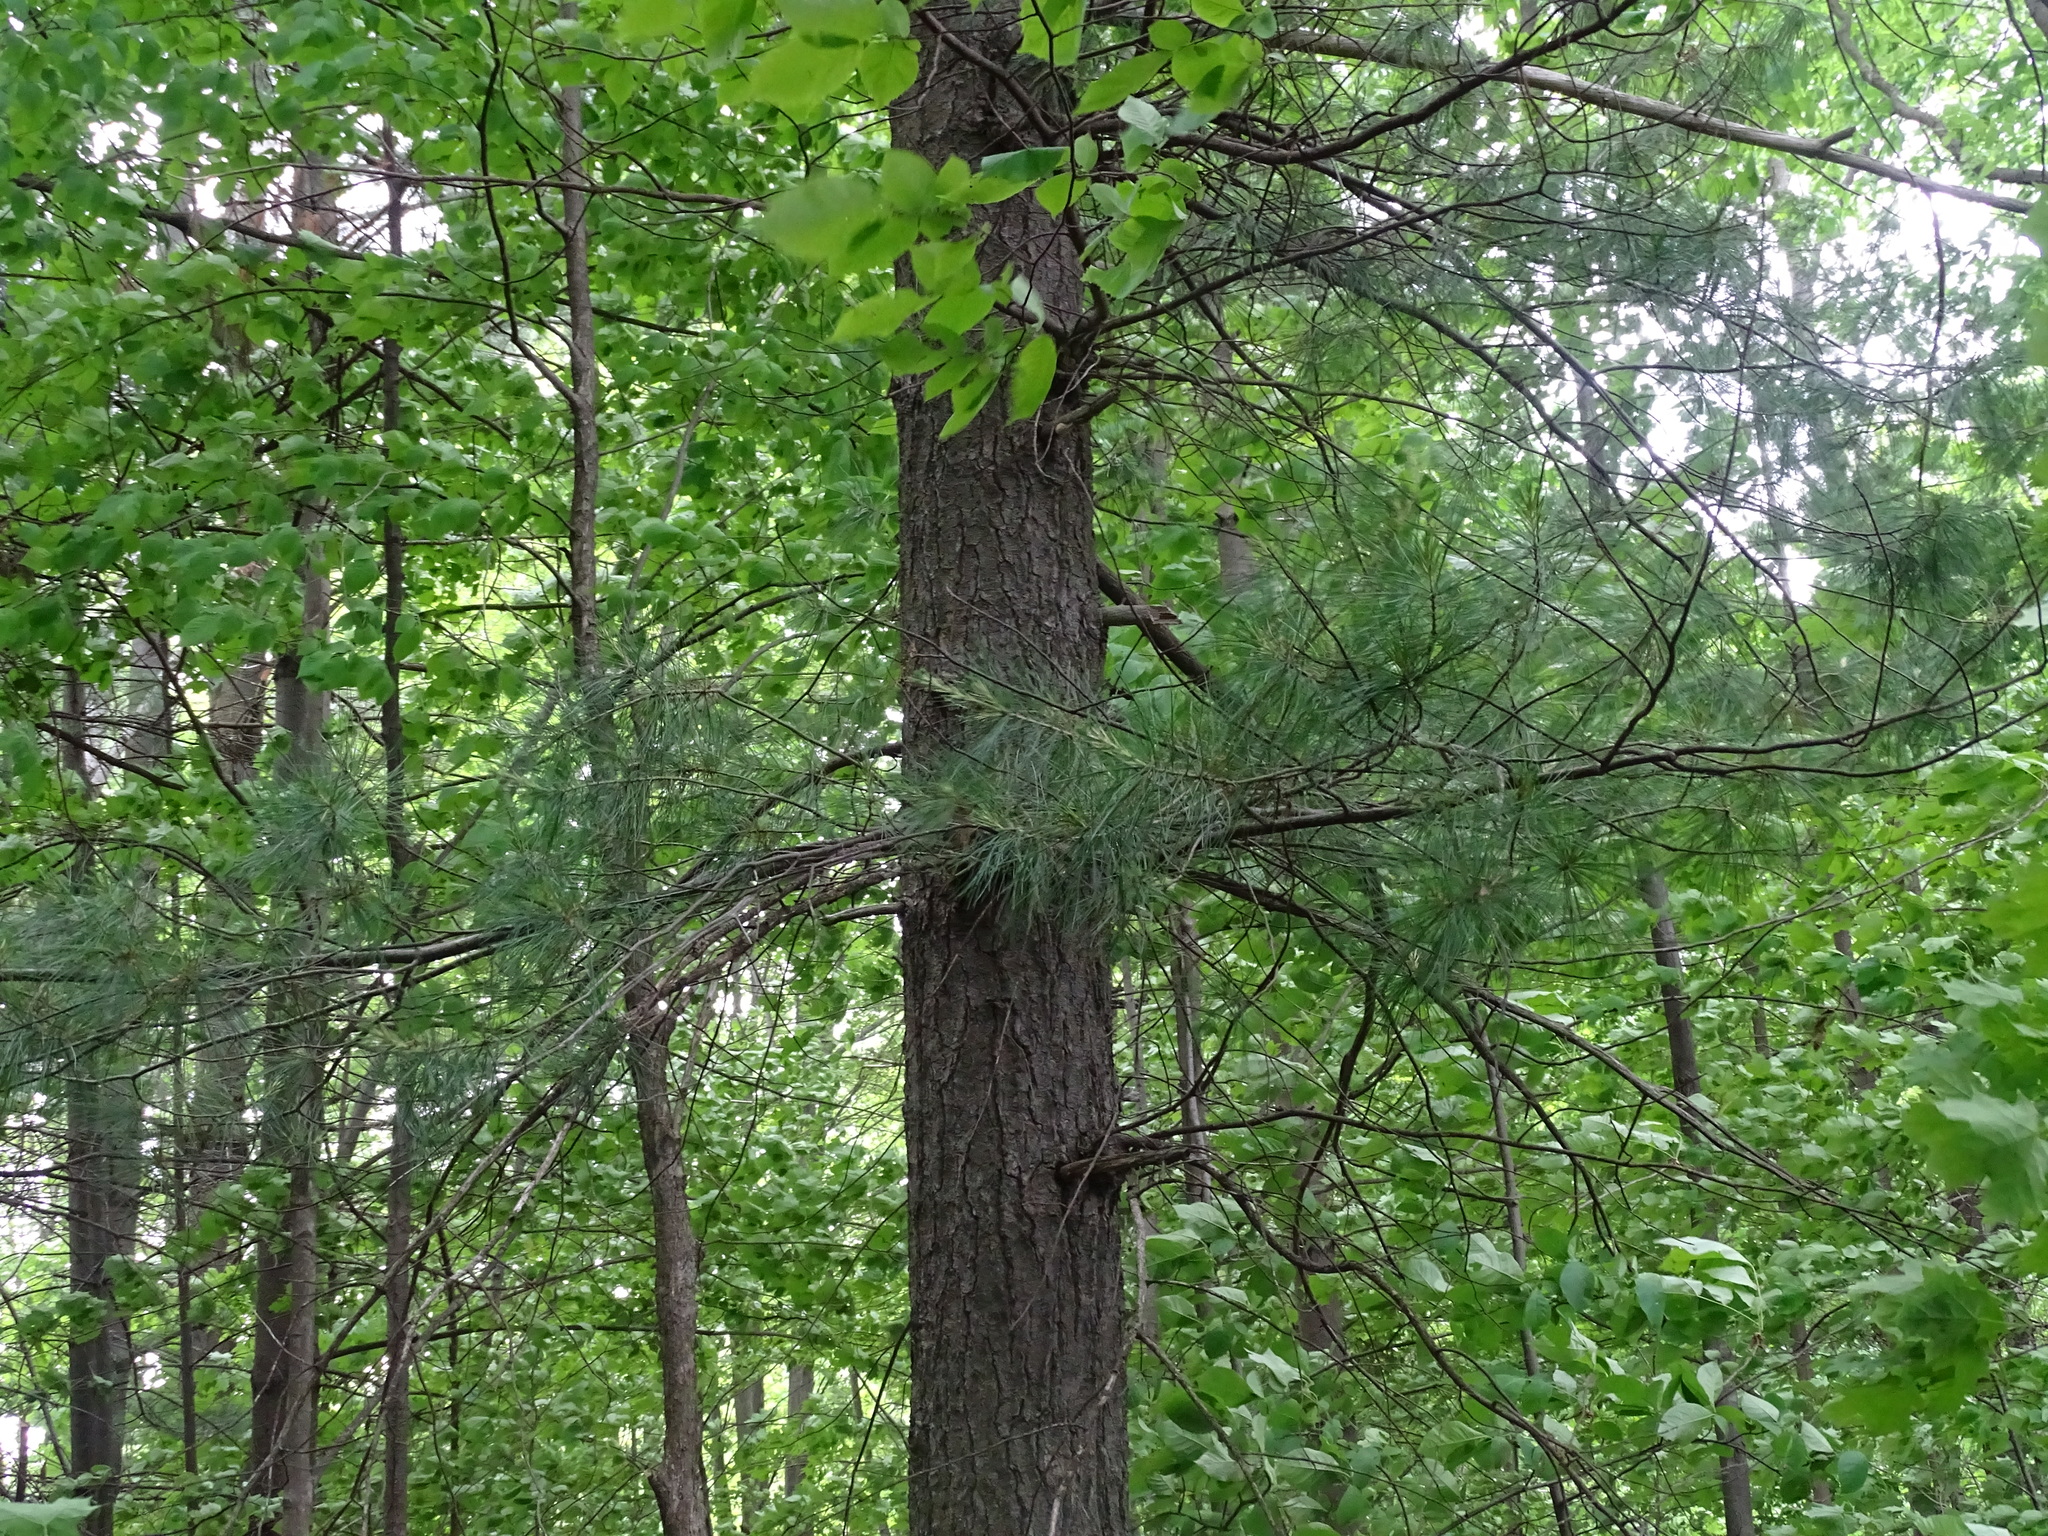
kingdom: Plantae
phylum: Tracheophyta
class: Pinopsida
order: Pinales
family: Pinaceae
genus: Pinus
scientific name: Pinus strobus
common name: Weymouth pine
